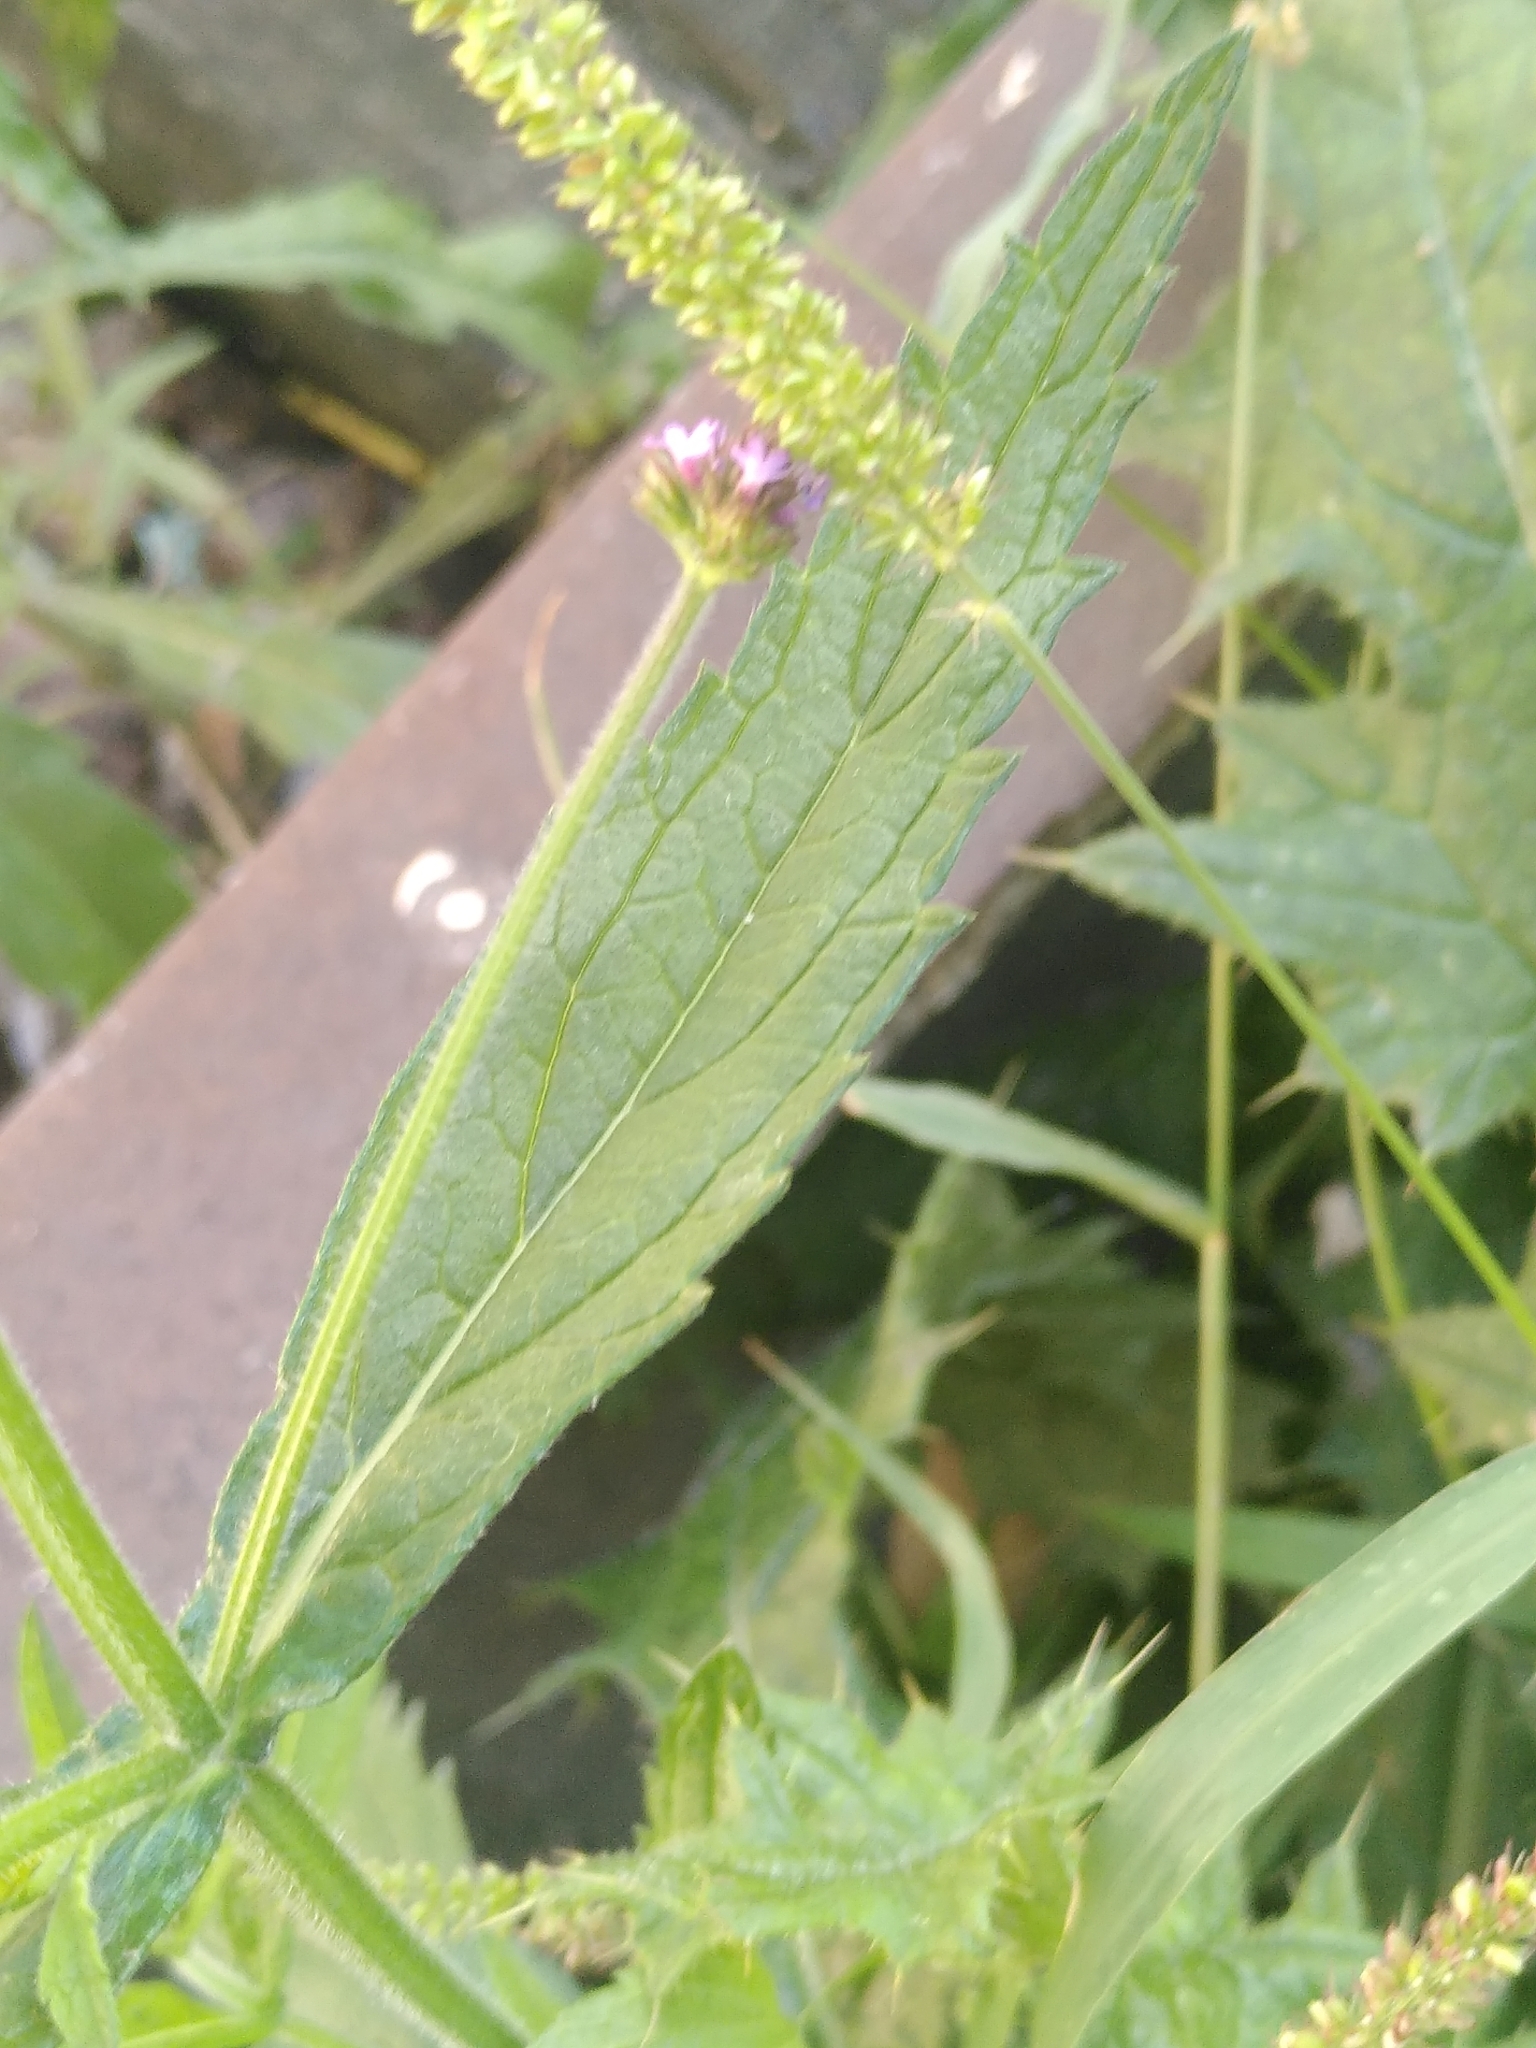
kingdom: Plantae
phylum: Tracheophyta
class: Magnoliopsida
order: Lamiales
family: Verbenaceae
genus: Verbena
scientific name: Verbena bonariensis
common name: Purpletop vervain
